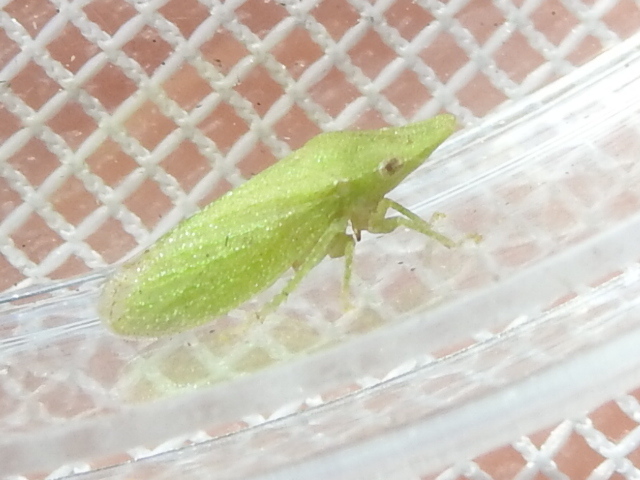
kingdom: Animalia
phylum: Arthropoda
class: Insecta
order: Hemiptera
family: Cicadellidae
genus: Xerophloea
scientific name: Xerophloea majesta
